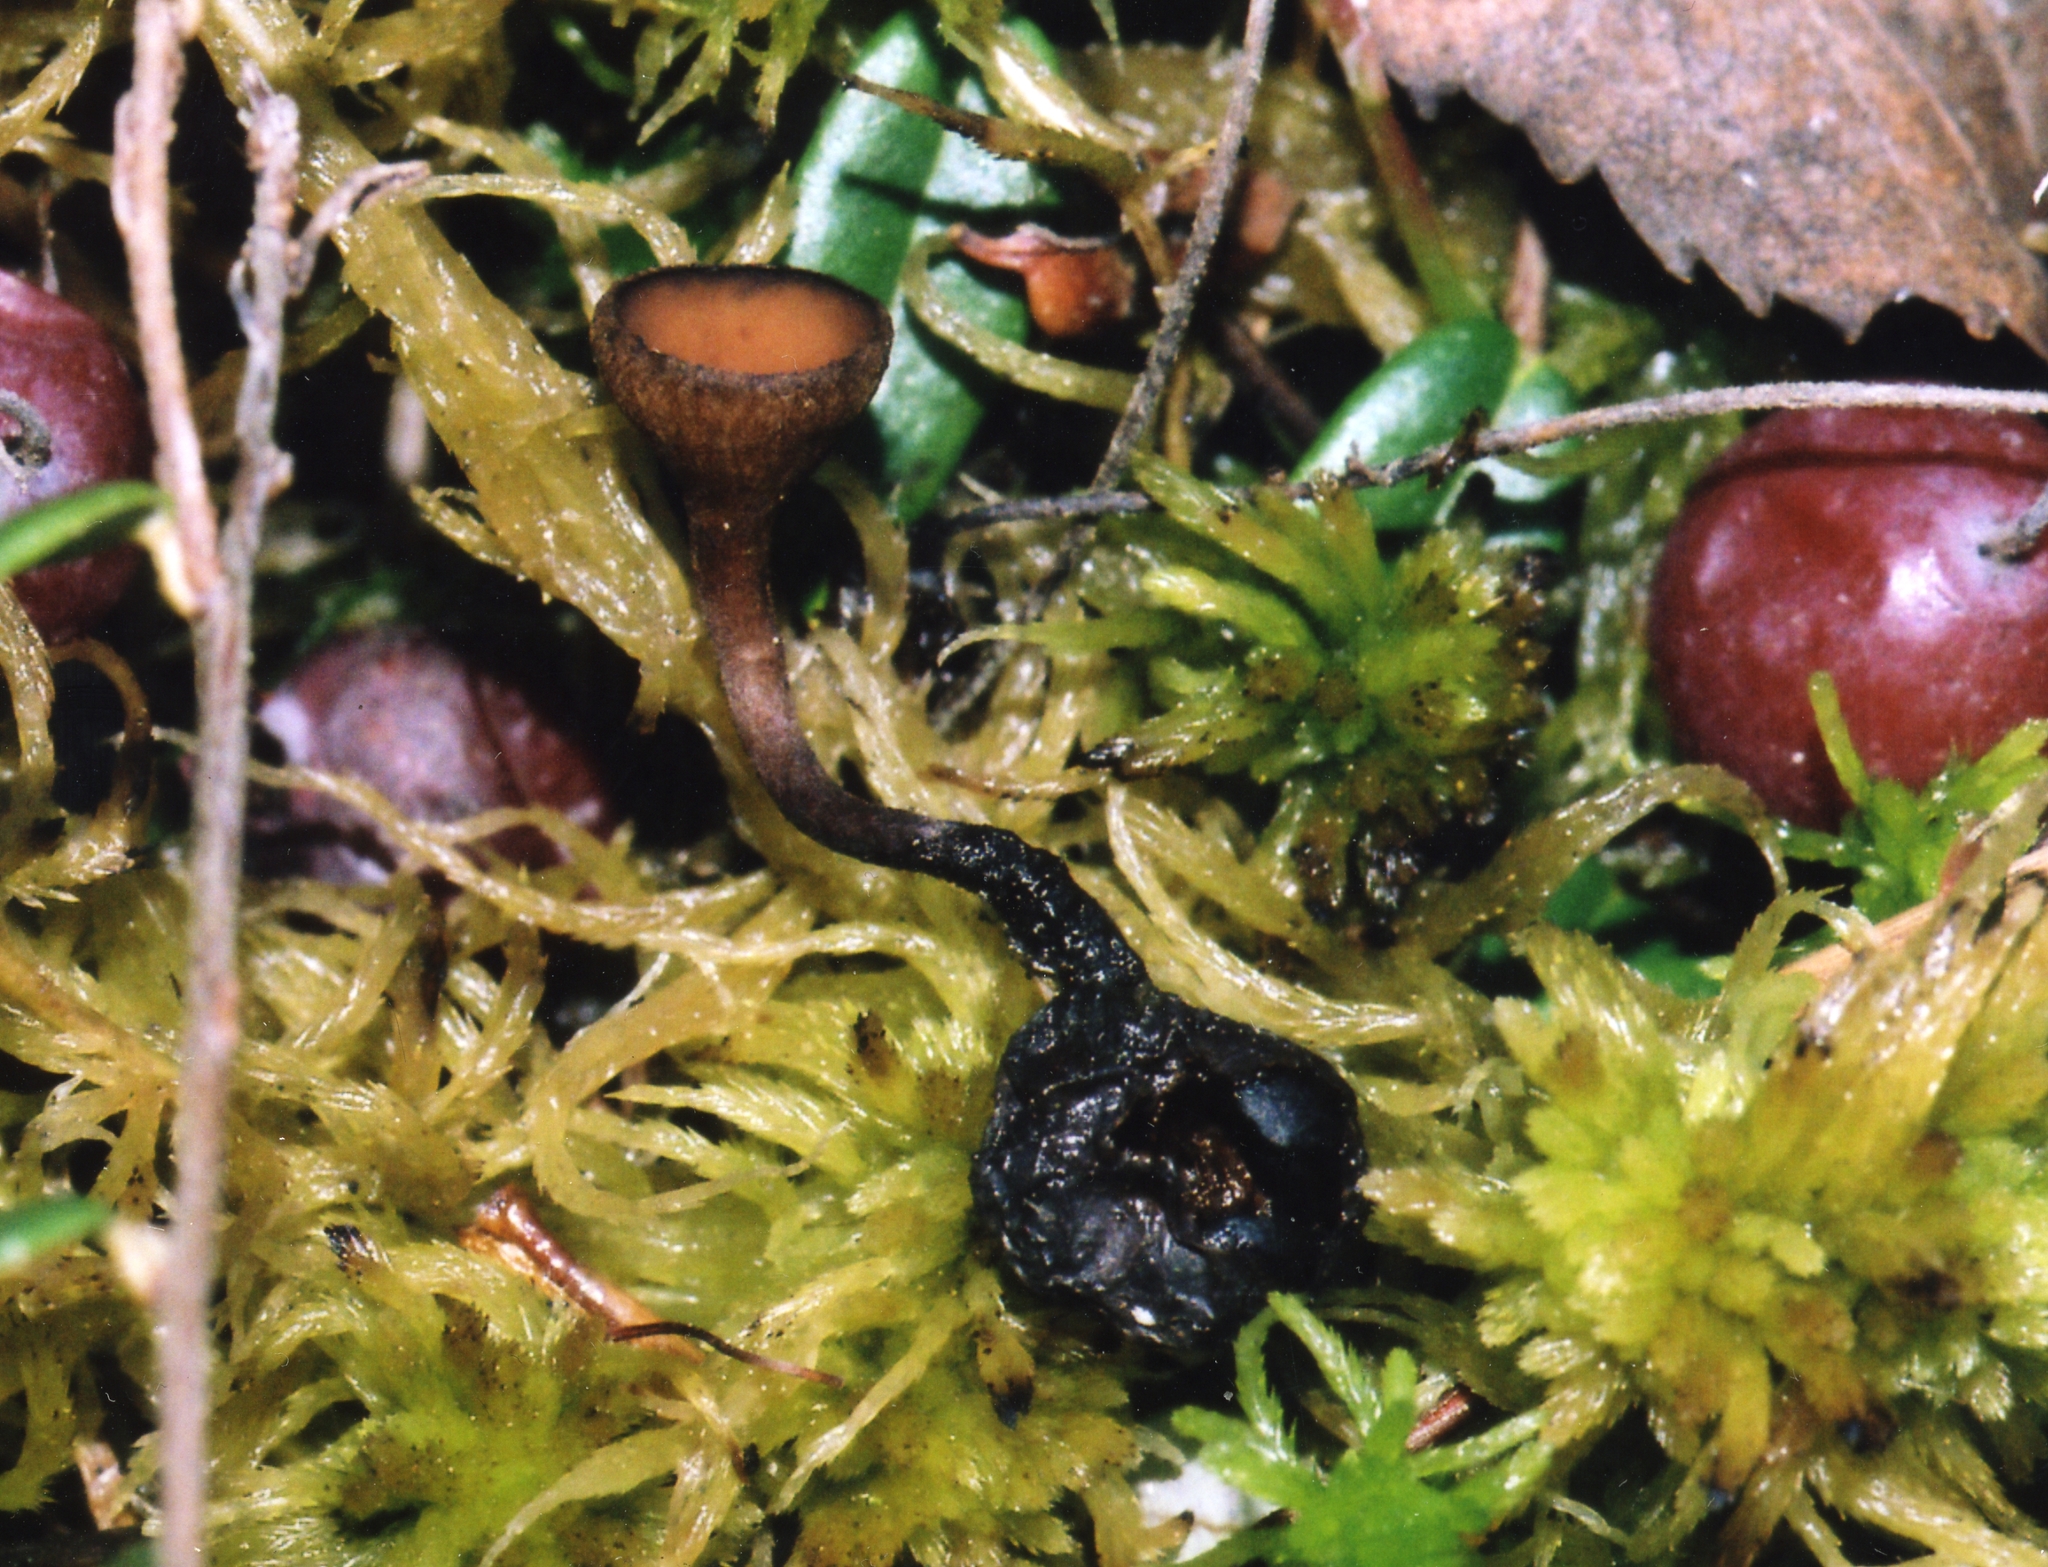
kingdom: Fungi
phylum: Ascomycota
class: Leotiomycetes
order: Helotiales
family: Sclerotiniaceae
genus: Monilinia
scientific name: Monilinia oxycocci
